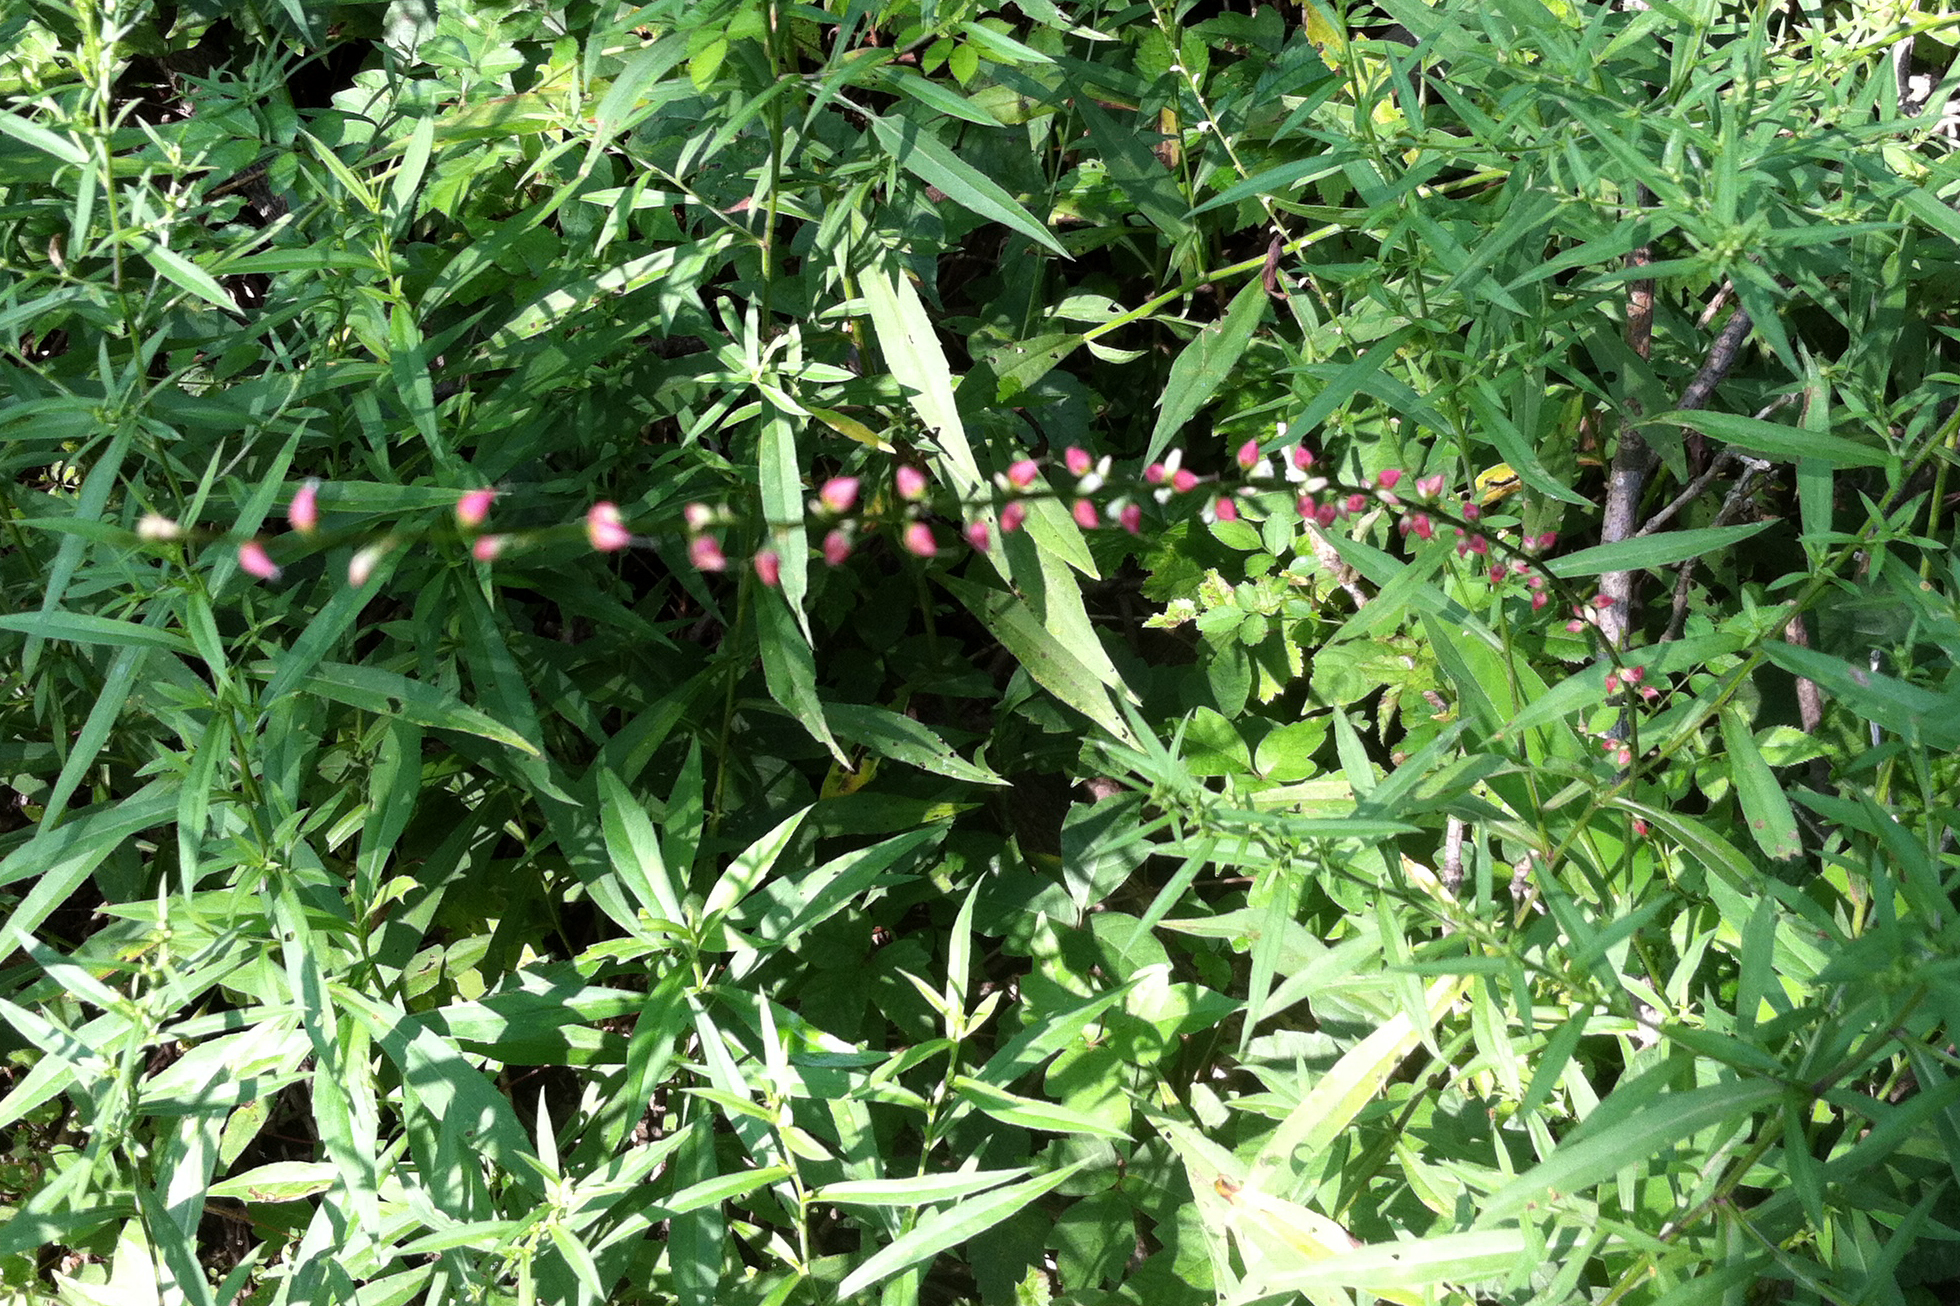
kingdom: Plantae
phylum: Tracheophyta
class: Magnoliopsida
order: Caryophyllales
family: Polygonaceae
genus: Persicaria
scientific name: Persicaria virginiana
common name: Jumpseed
